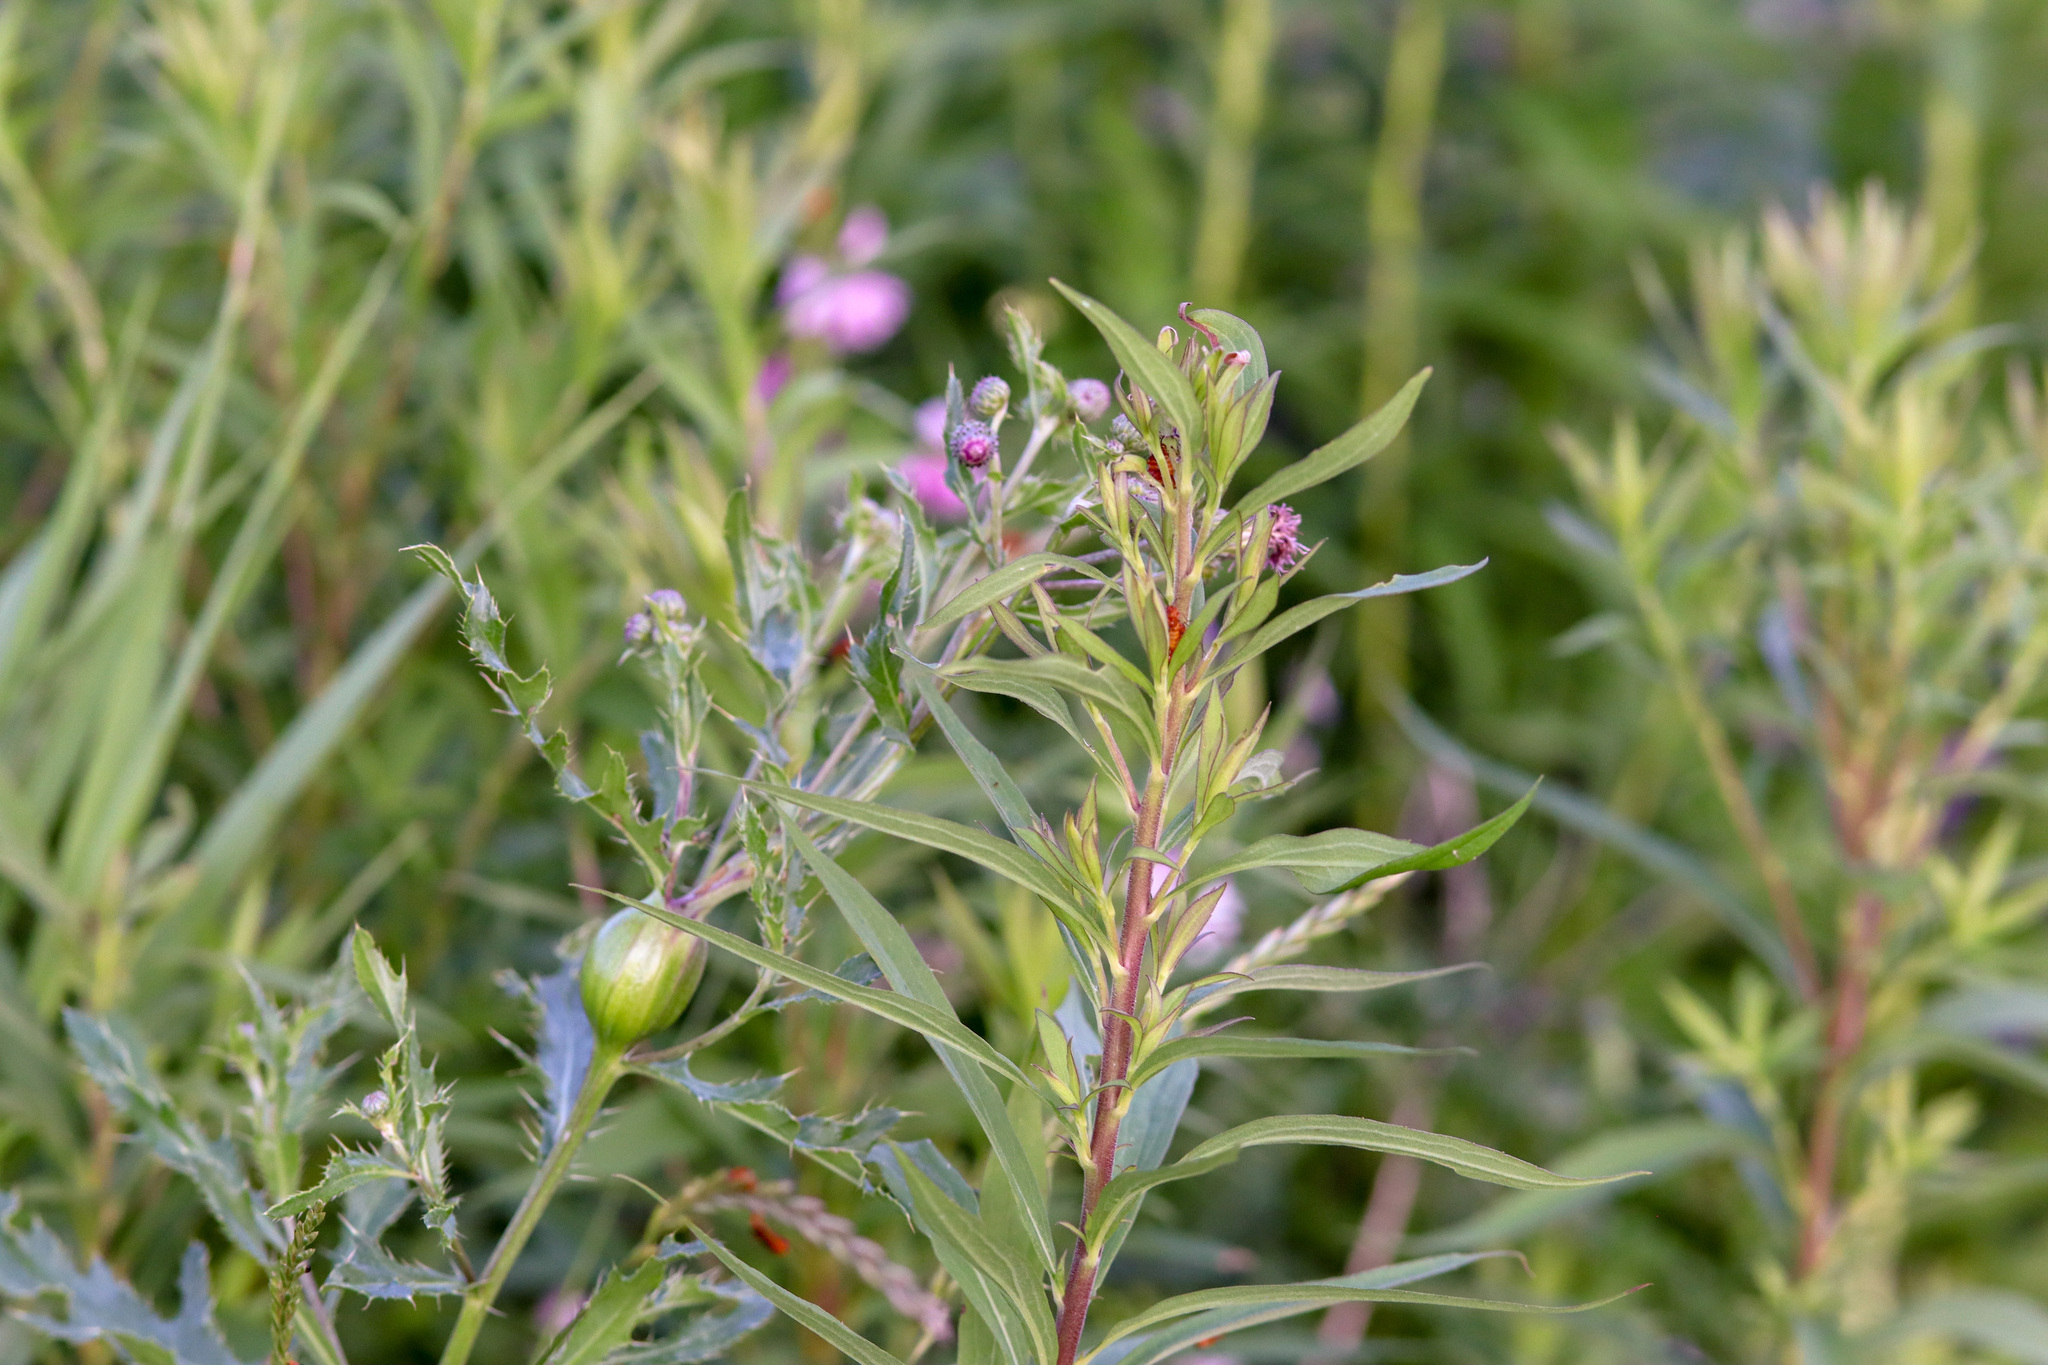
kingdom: Plantae
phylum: Tracheophyta
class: Magnoliopsida
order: Asterales
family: Asteraceae
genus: Cirsium
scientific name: Cirsium arvense
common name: Creeping thistle
